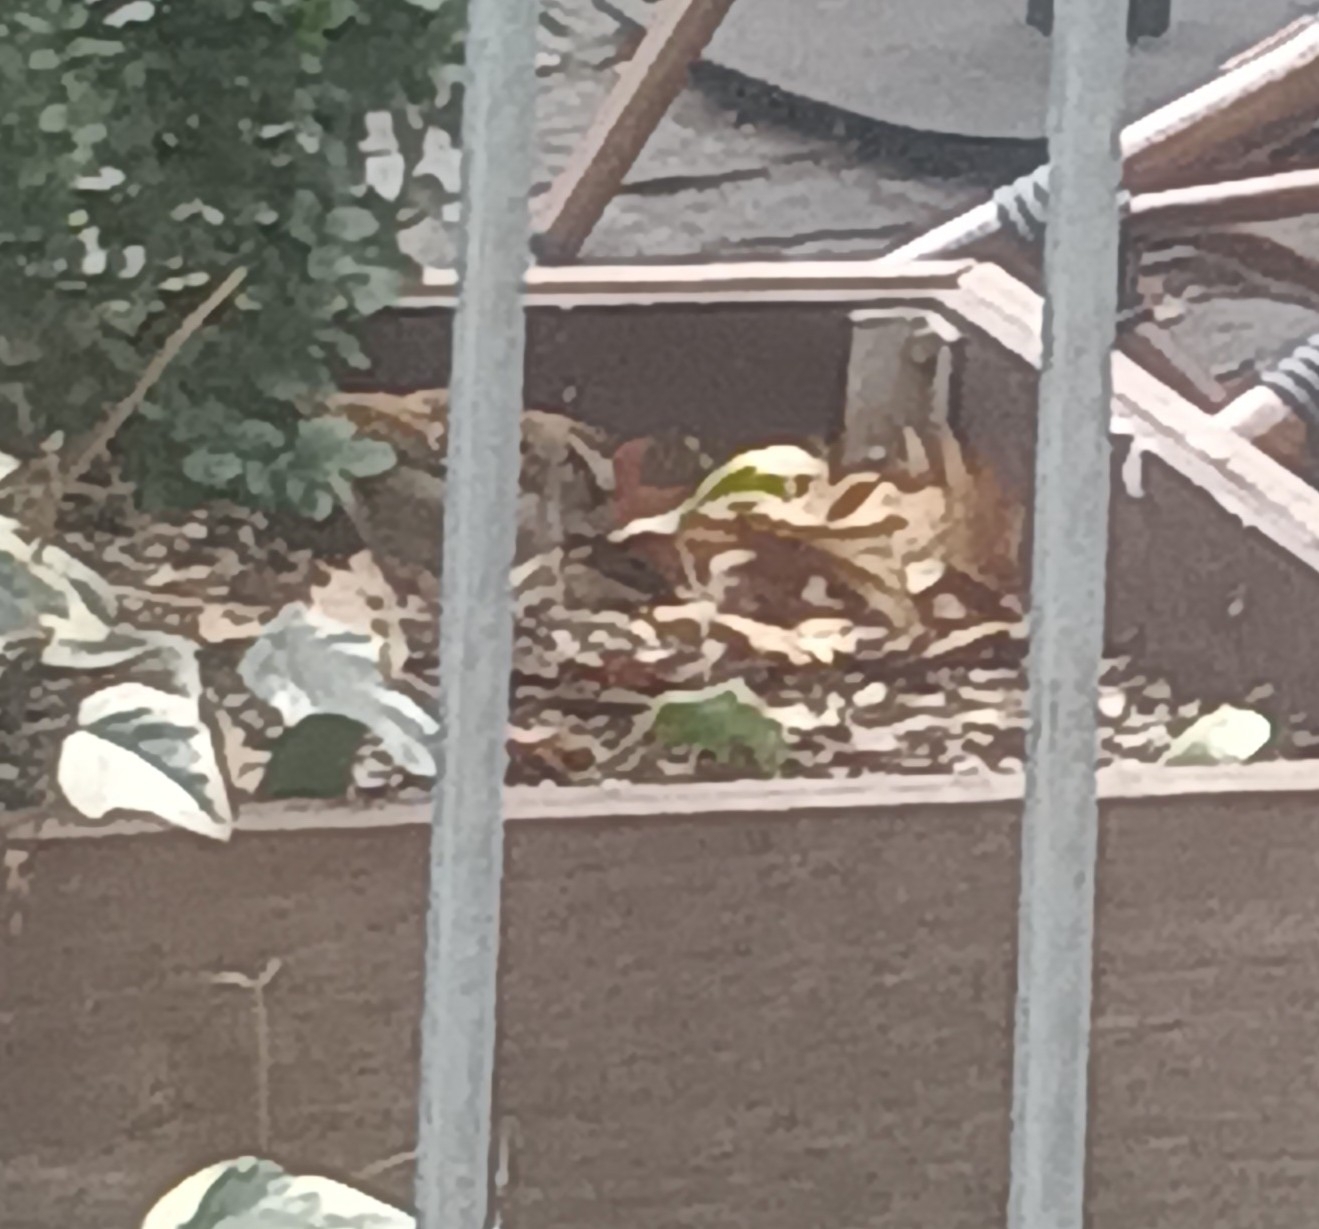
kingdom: Animalia
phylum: Chordata
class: Aves
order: Passeriformes
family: Passerellidae
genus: Zonotrichia
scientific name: Zonotrichia albicollis
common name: White-throated sparrow
